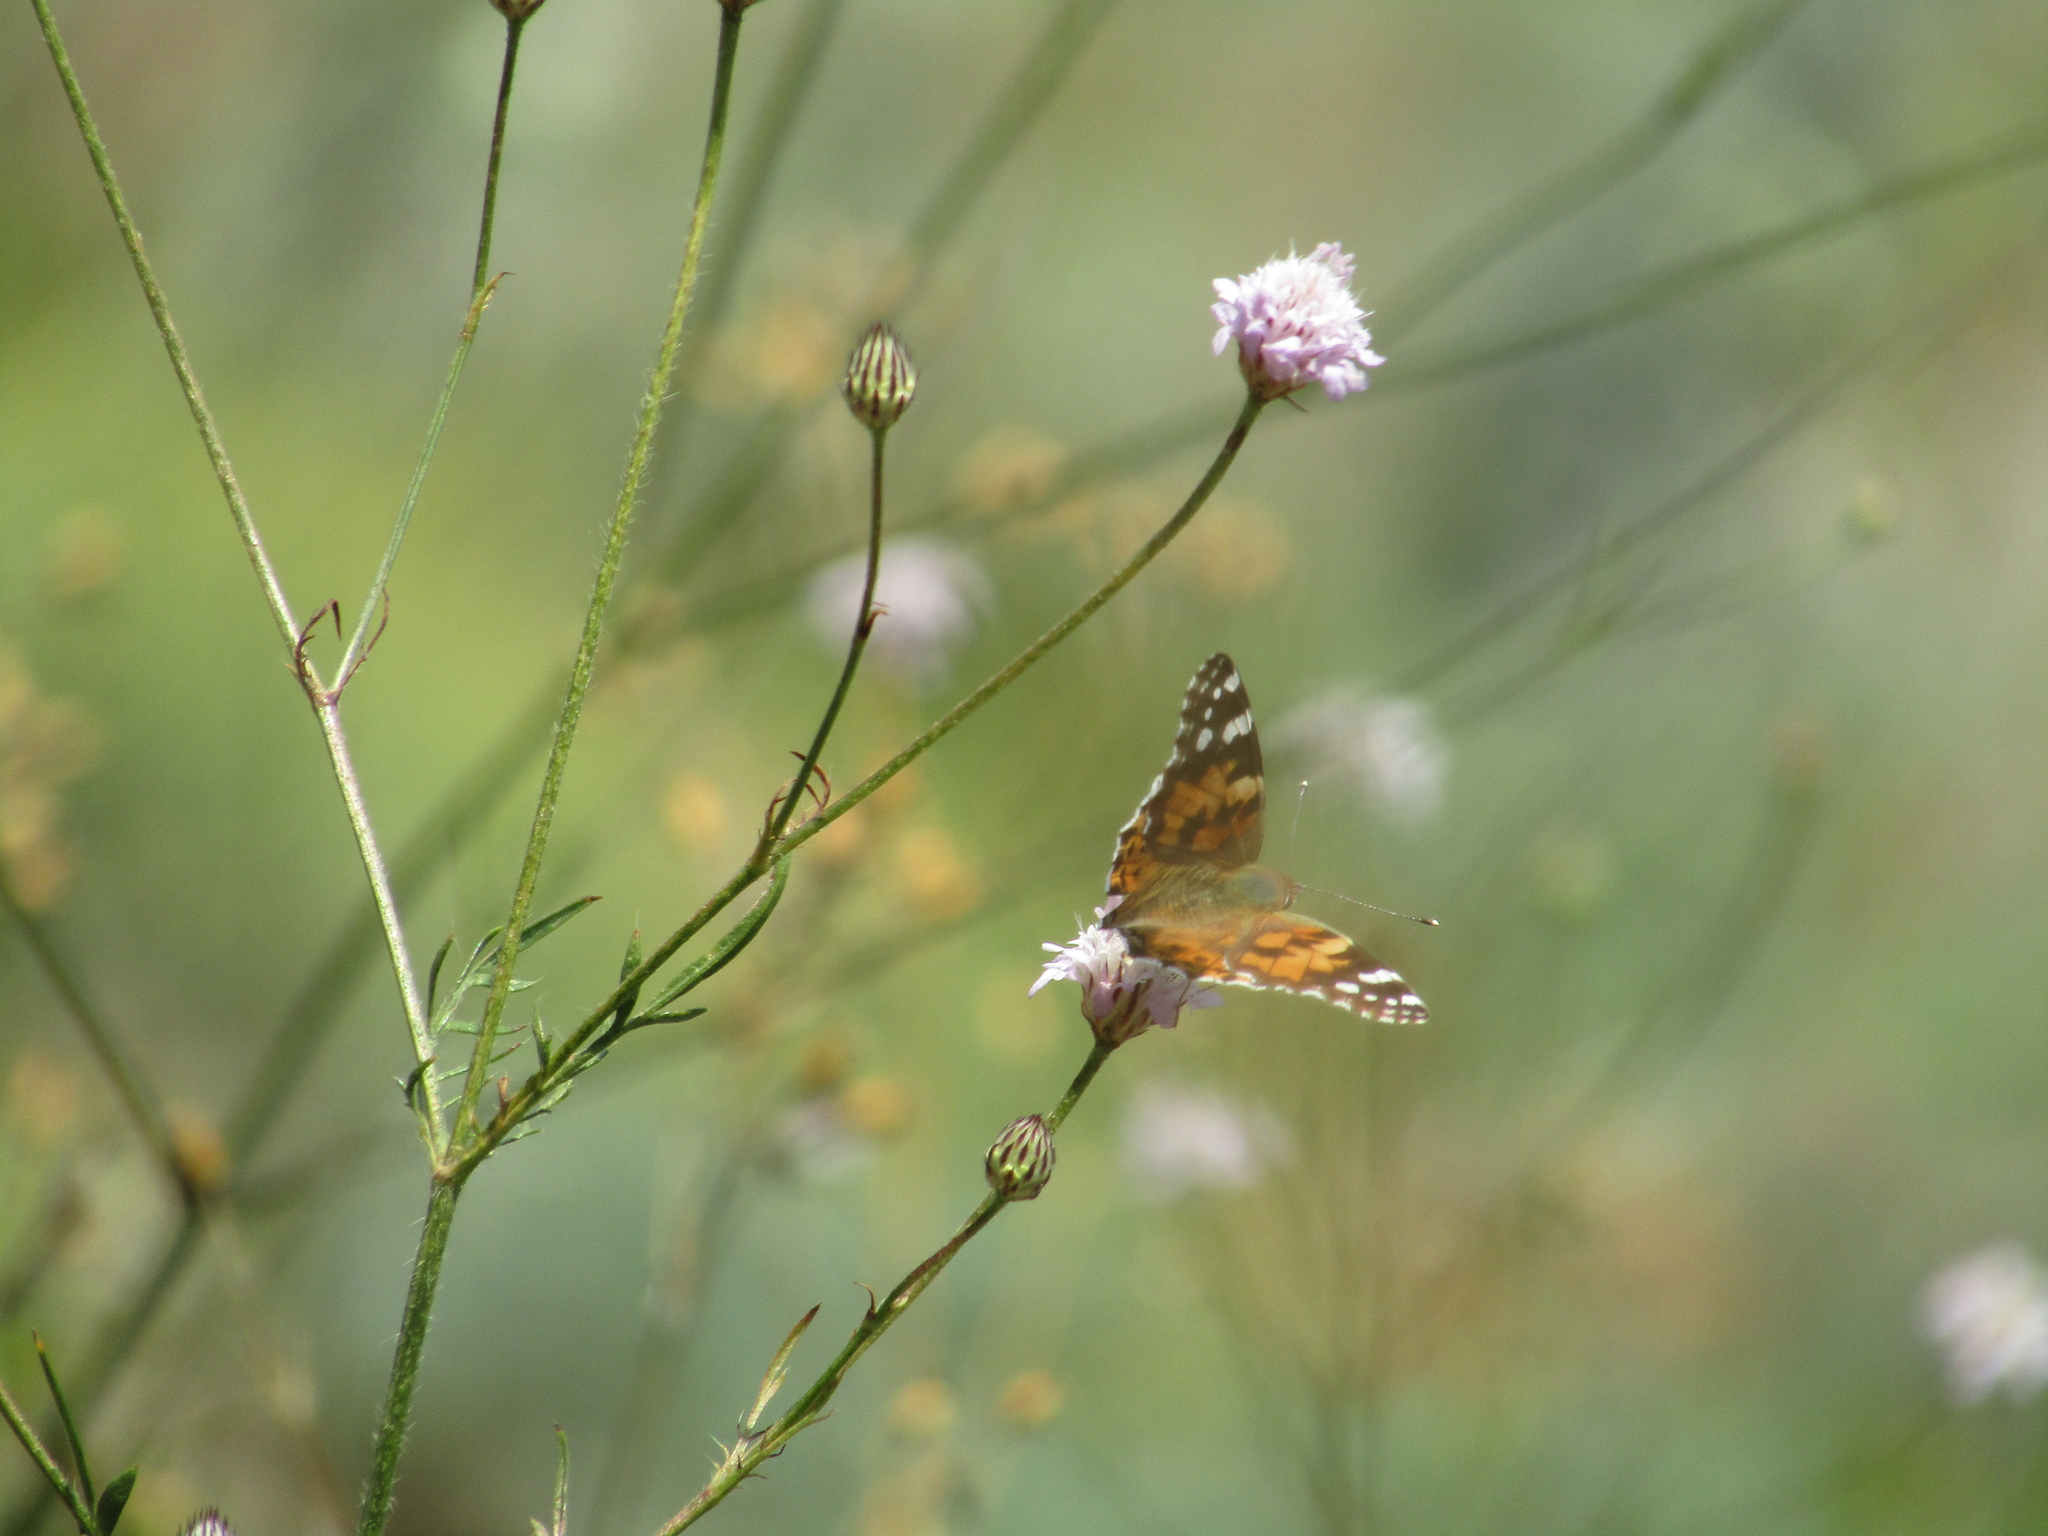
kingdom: Animalia
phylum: Arthropoda
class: Insecta
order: Lepidoptera
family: Nymphalidae
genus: Vanessa
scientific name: Vanessa cardui
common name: Painted lady
